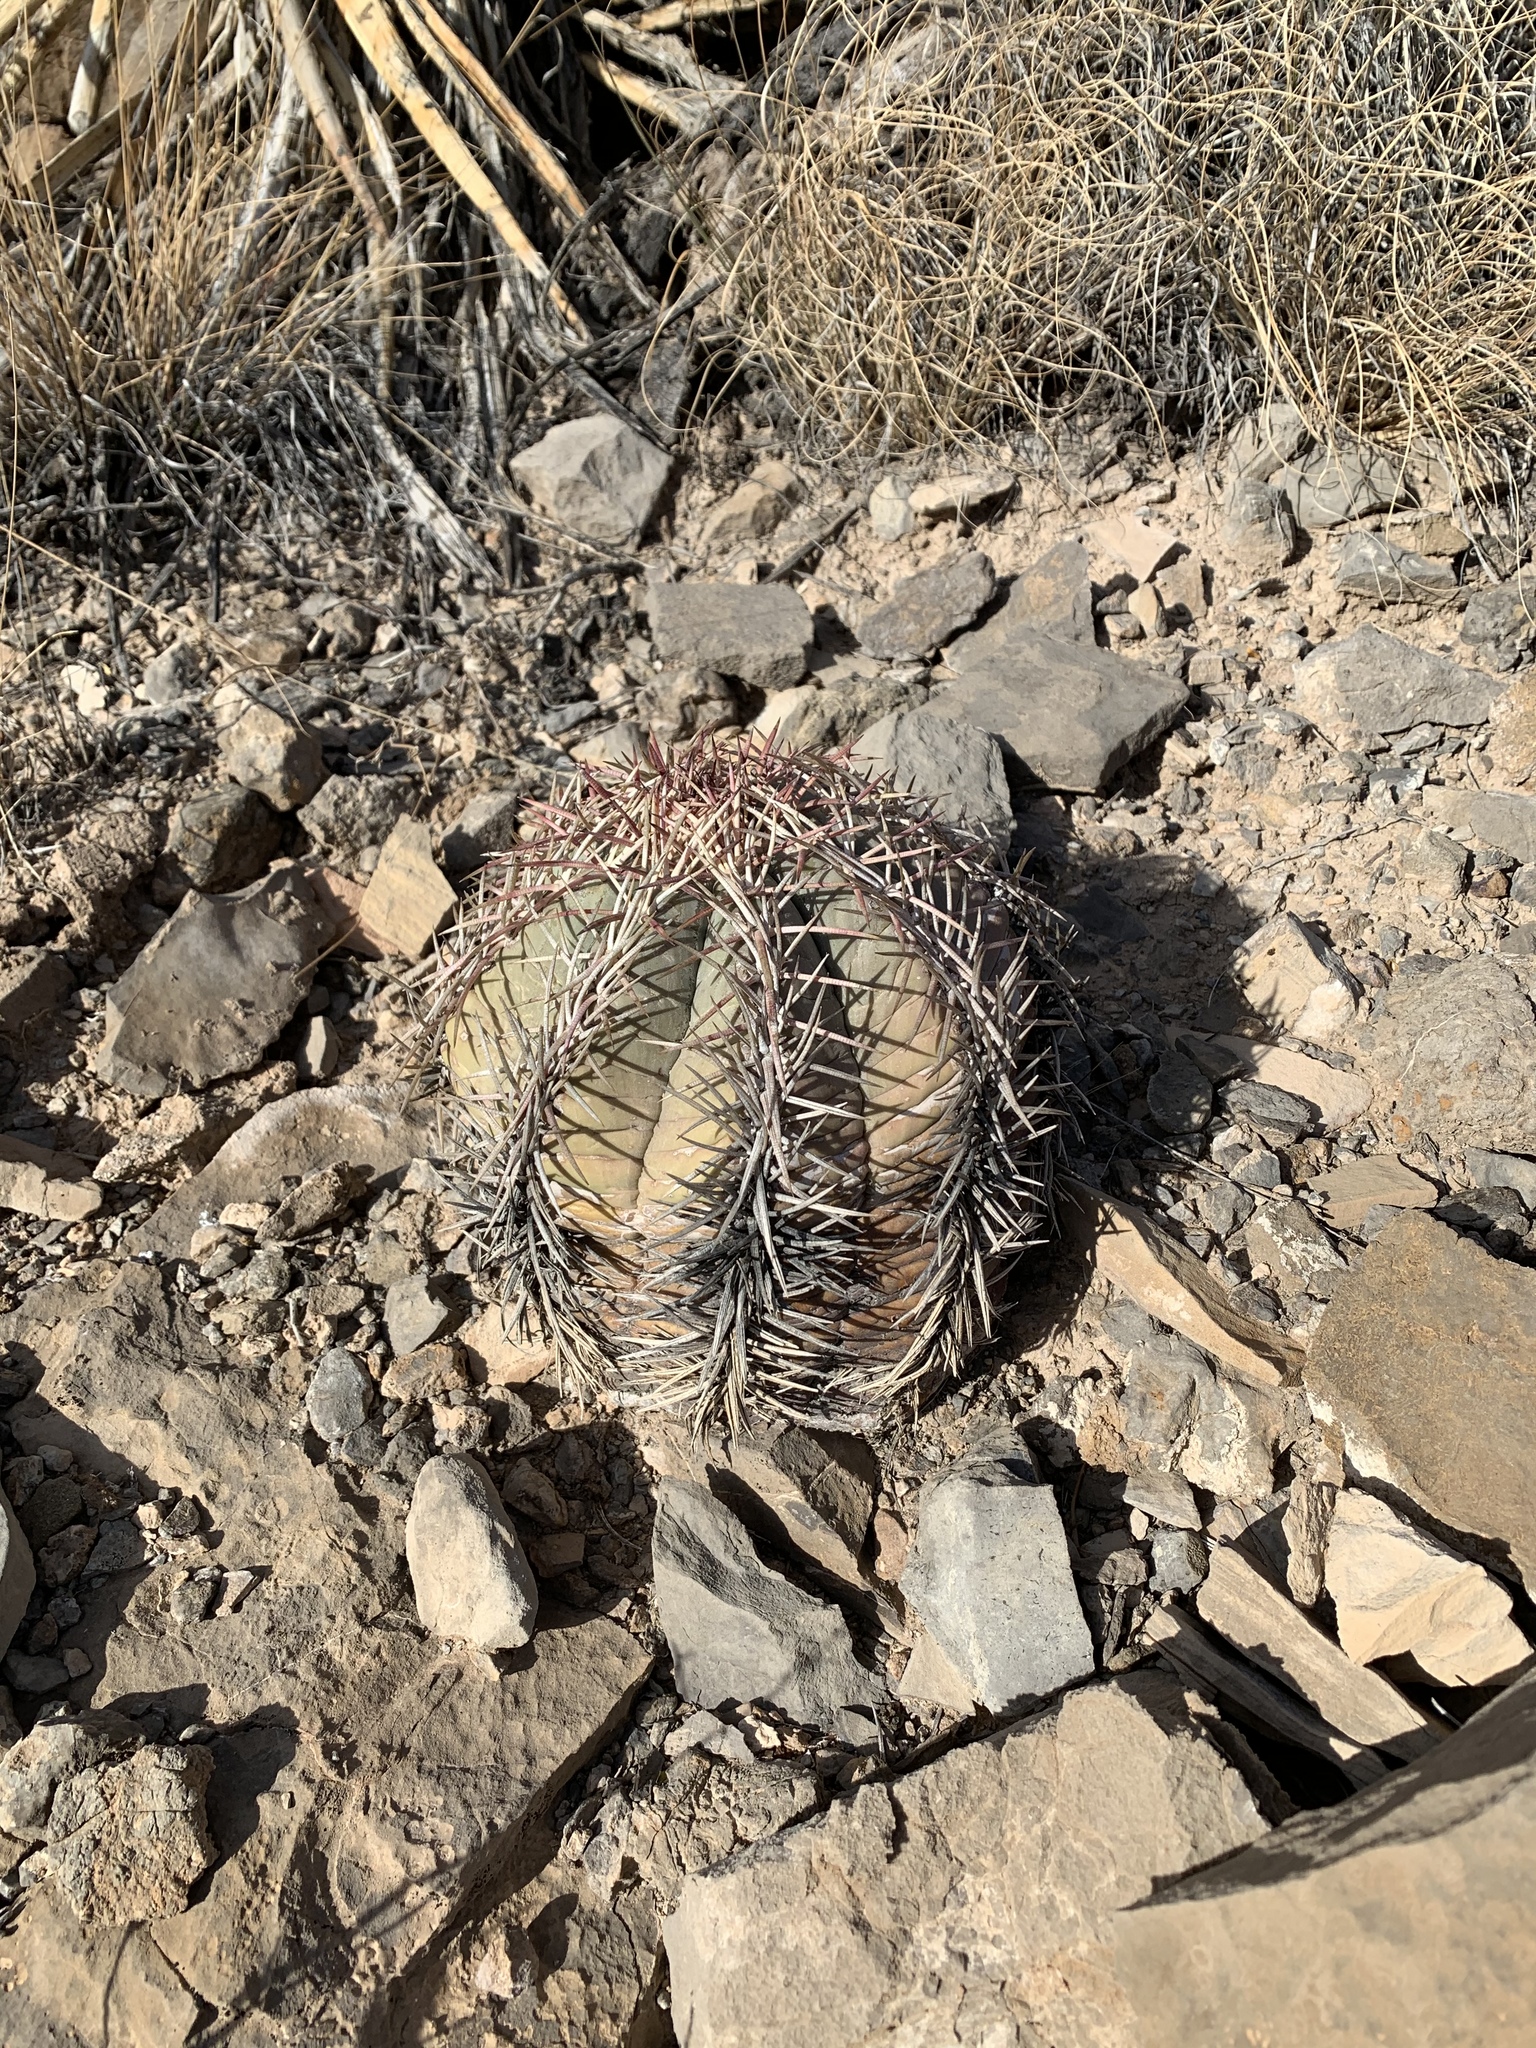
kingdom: Plantae
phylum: Tracheophyta
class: Magnoliopsida
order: Caryophyllales
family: Cactaceae
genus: Echinocactus
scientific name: Echinocactus horizonthalonius
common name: Devilshead
